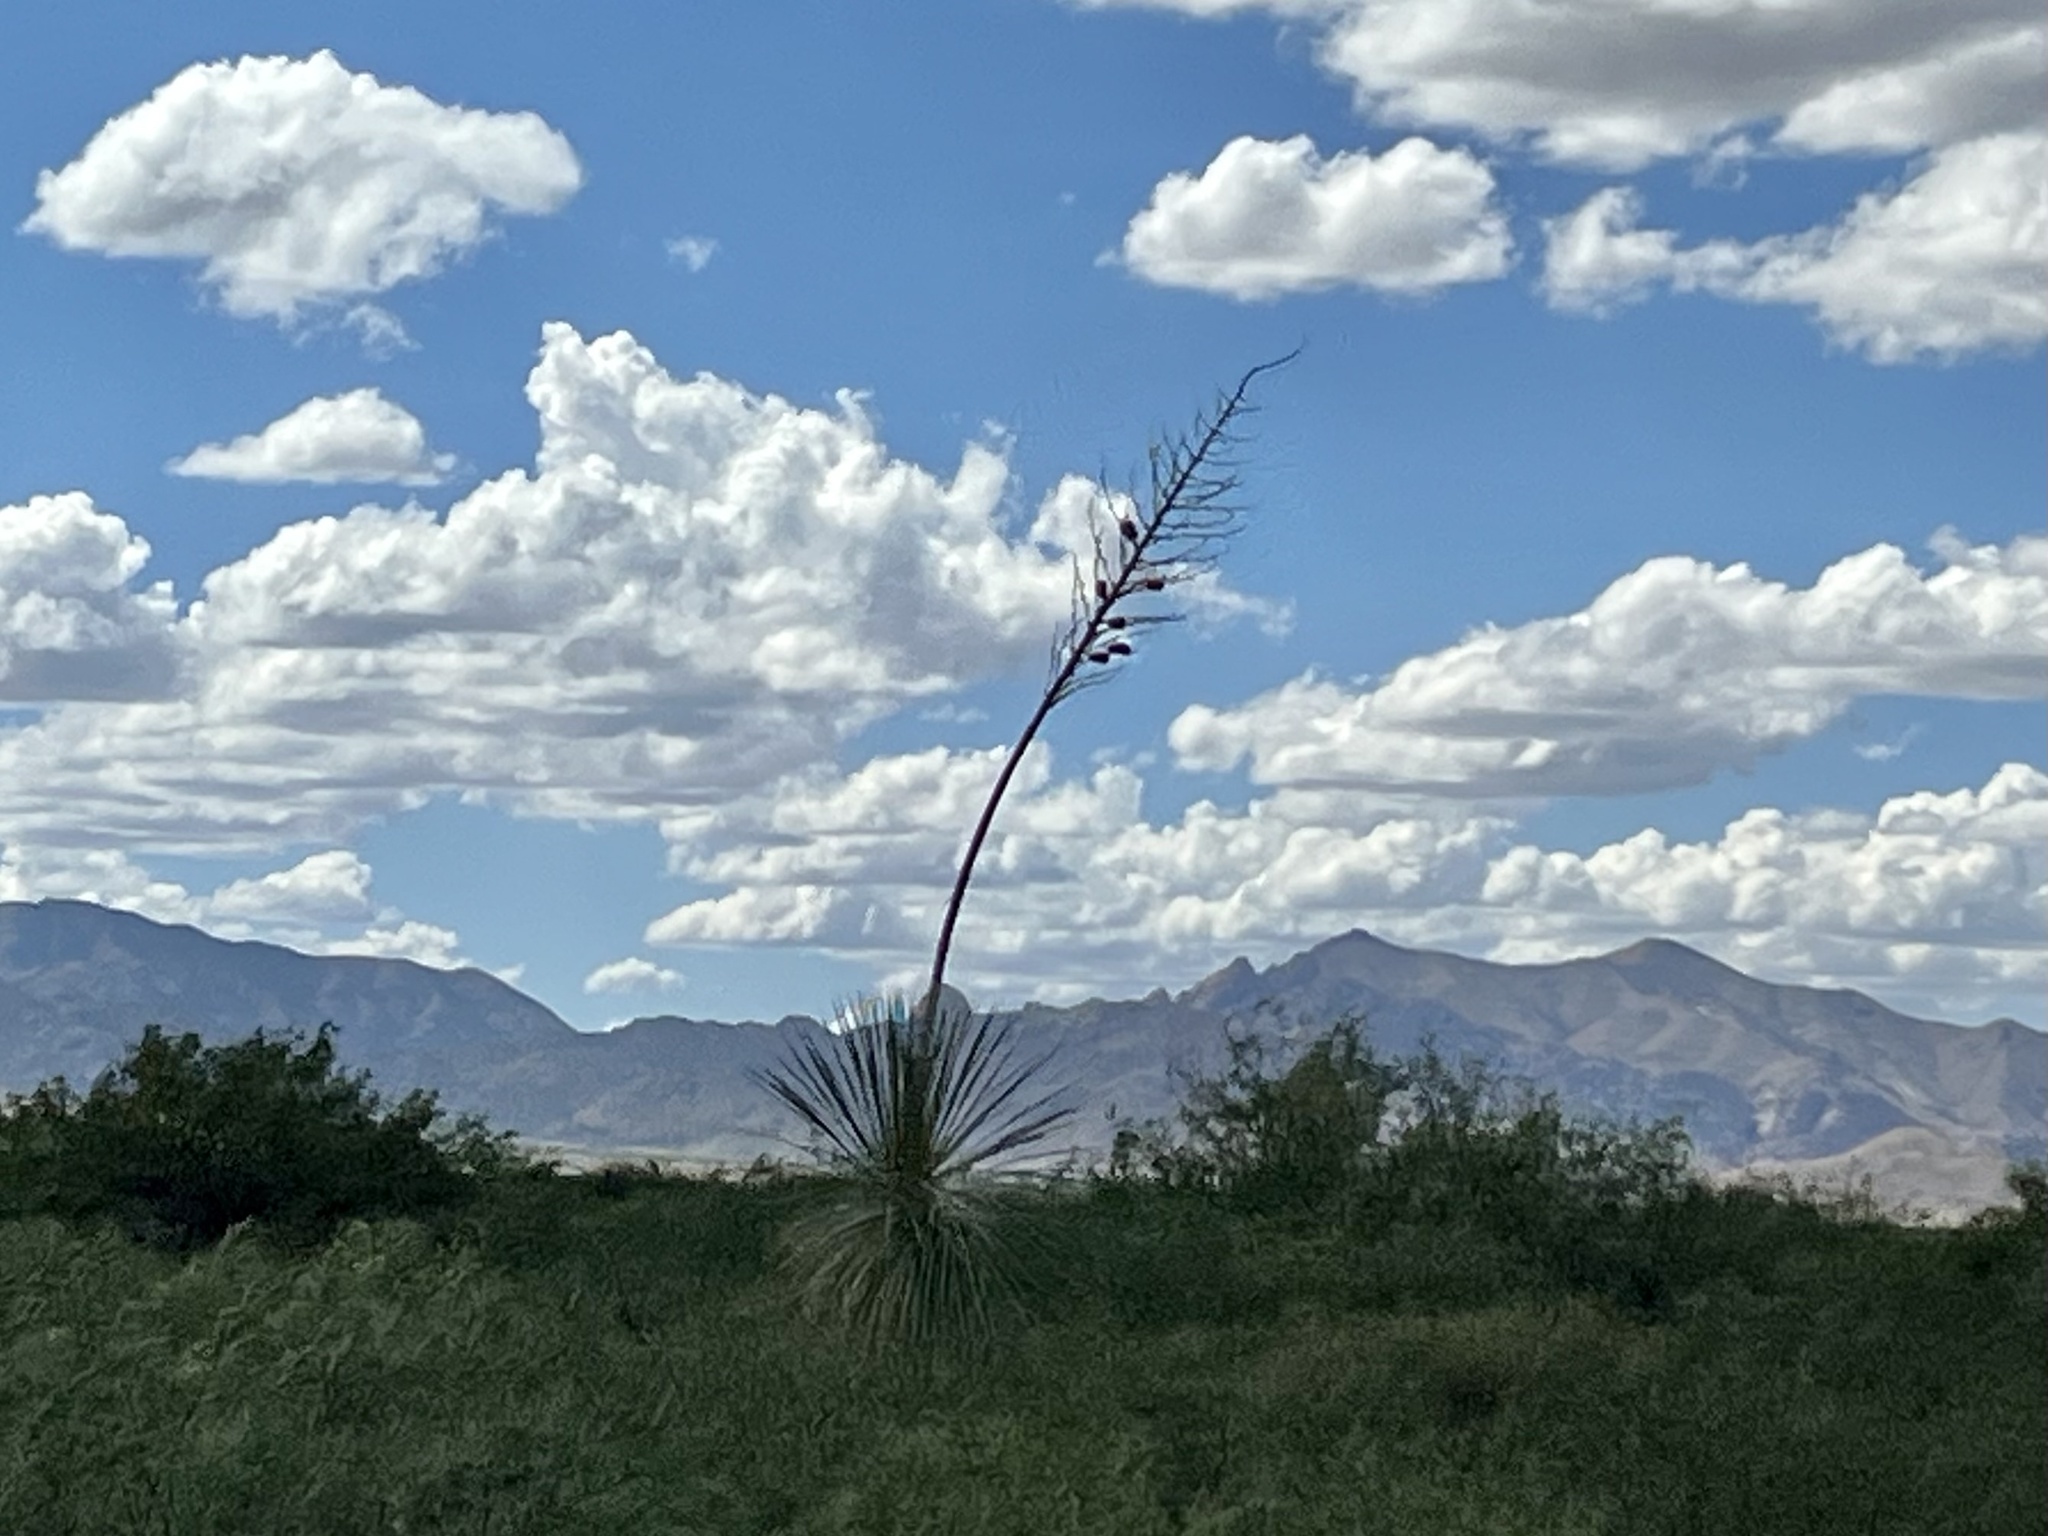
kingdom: Plantae
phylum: Tracheophyta
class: Liliopsida
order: Asparagales
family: Asparagaceae
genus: Yucca
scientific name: Yucca elata
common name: Palmella
